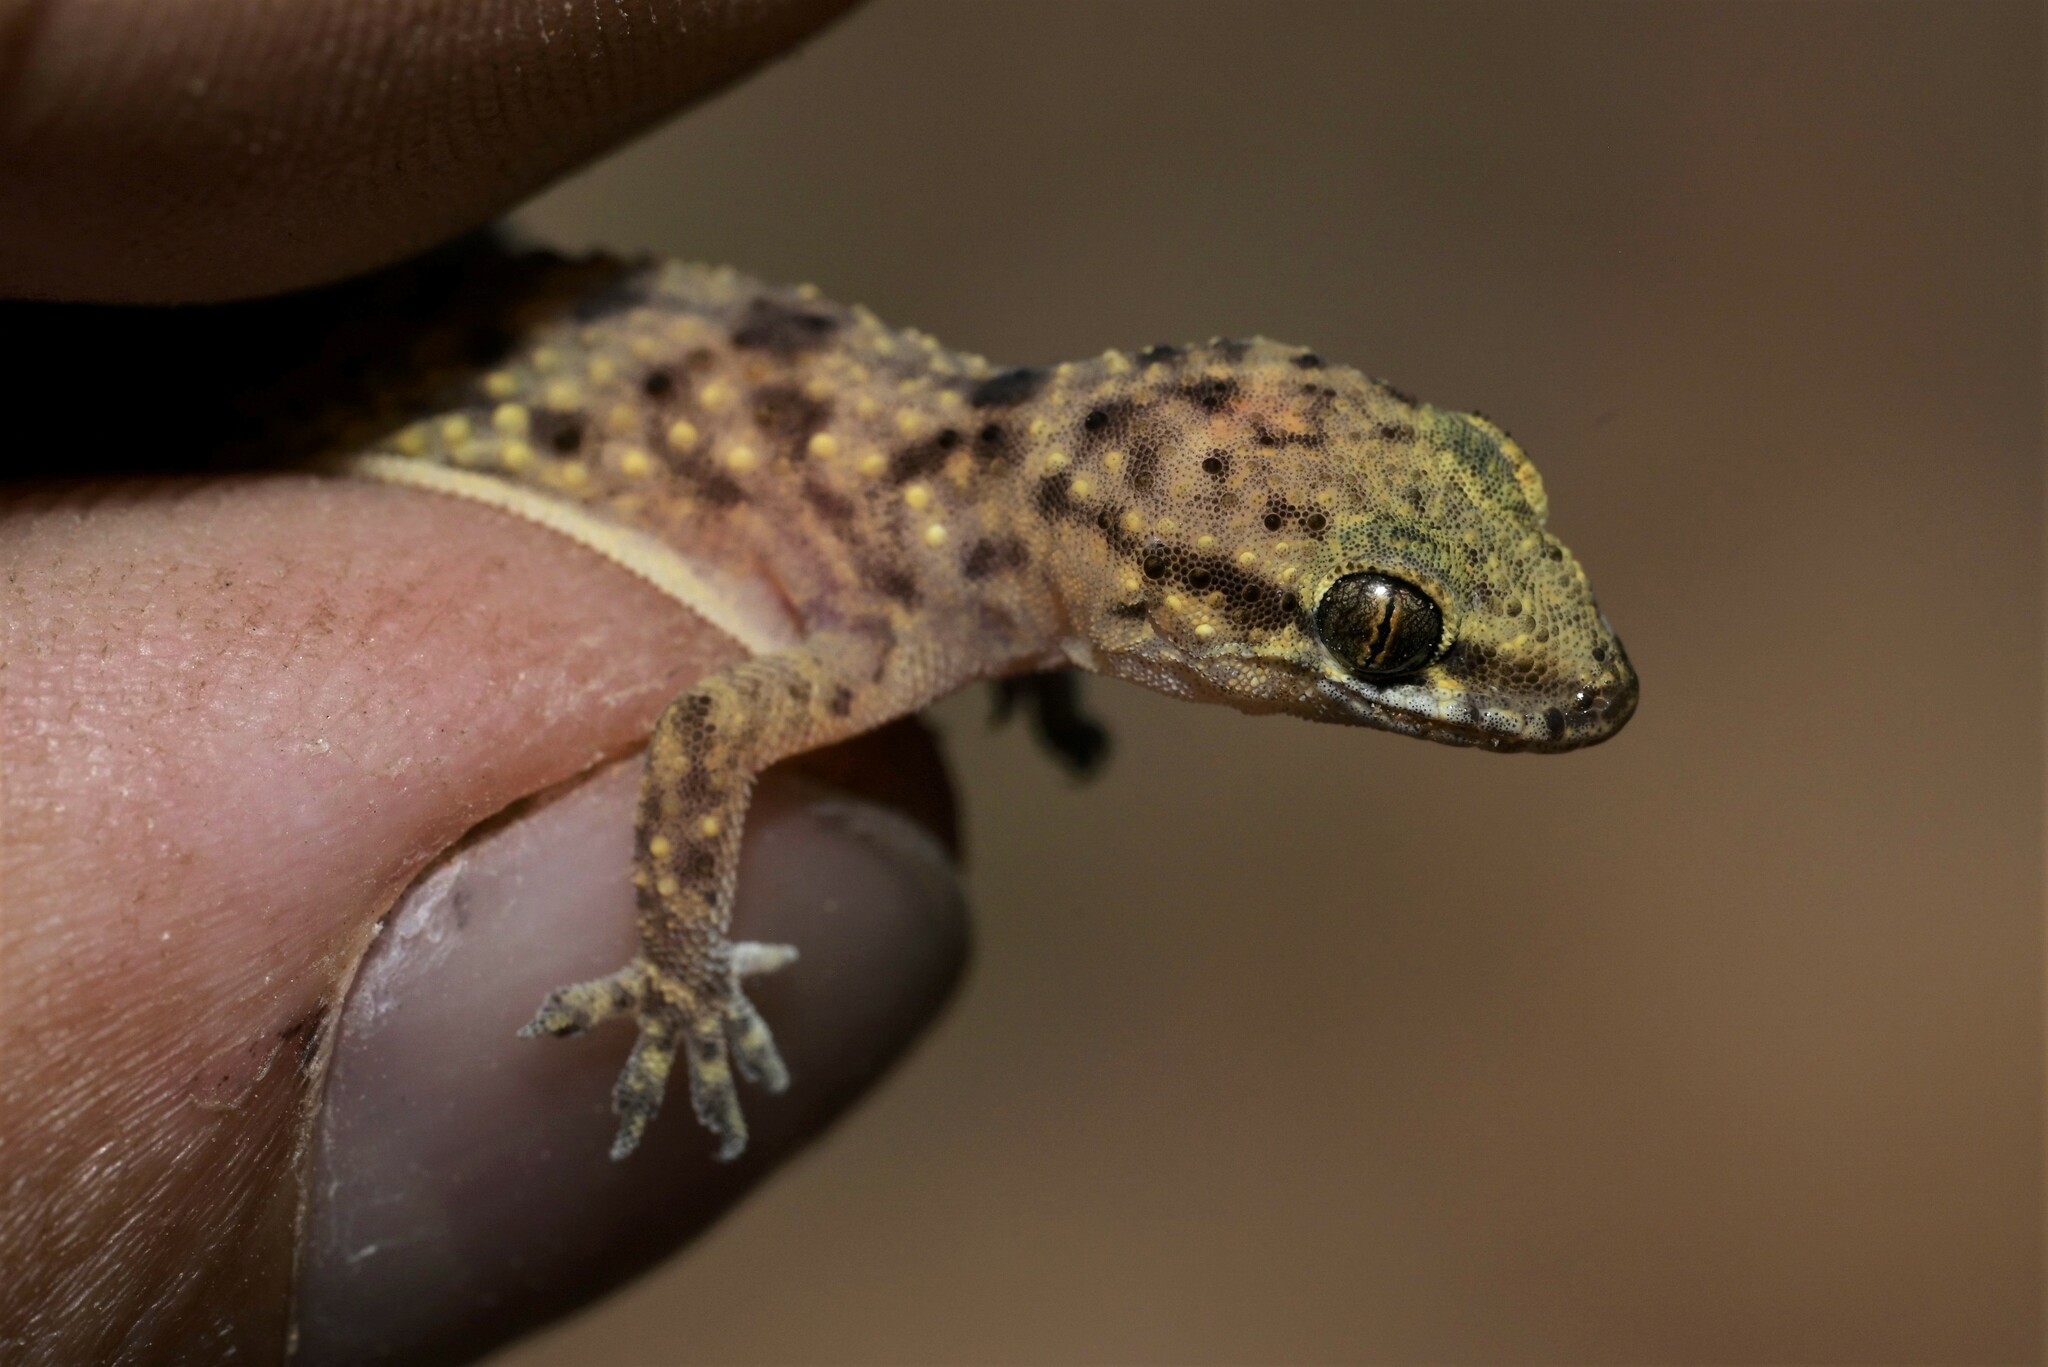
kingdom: Animalia
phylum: Chordata
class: Squamata
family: Gekkonidae
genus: Hemidactylus
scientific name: Hemidactylus granosus
